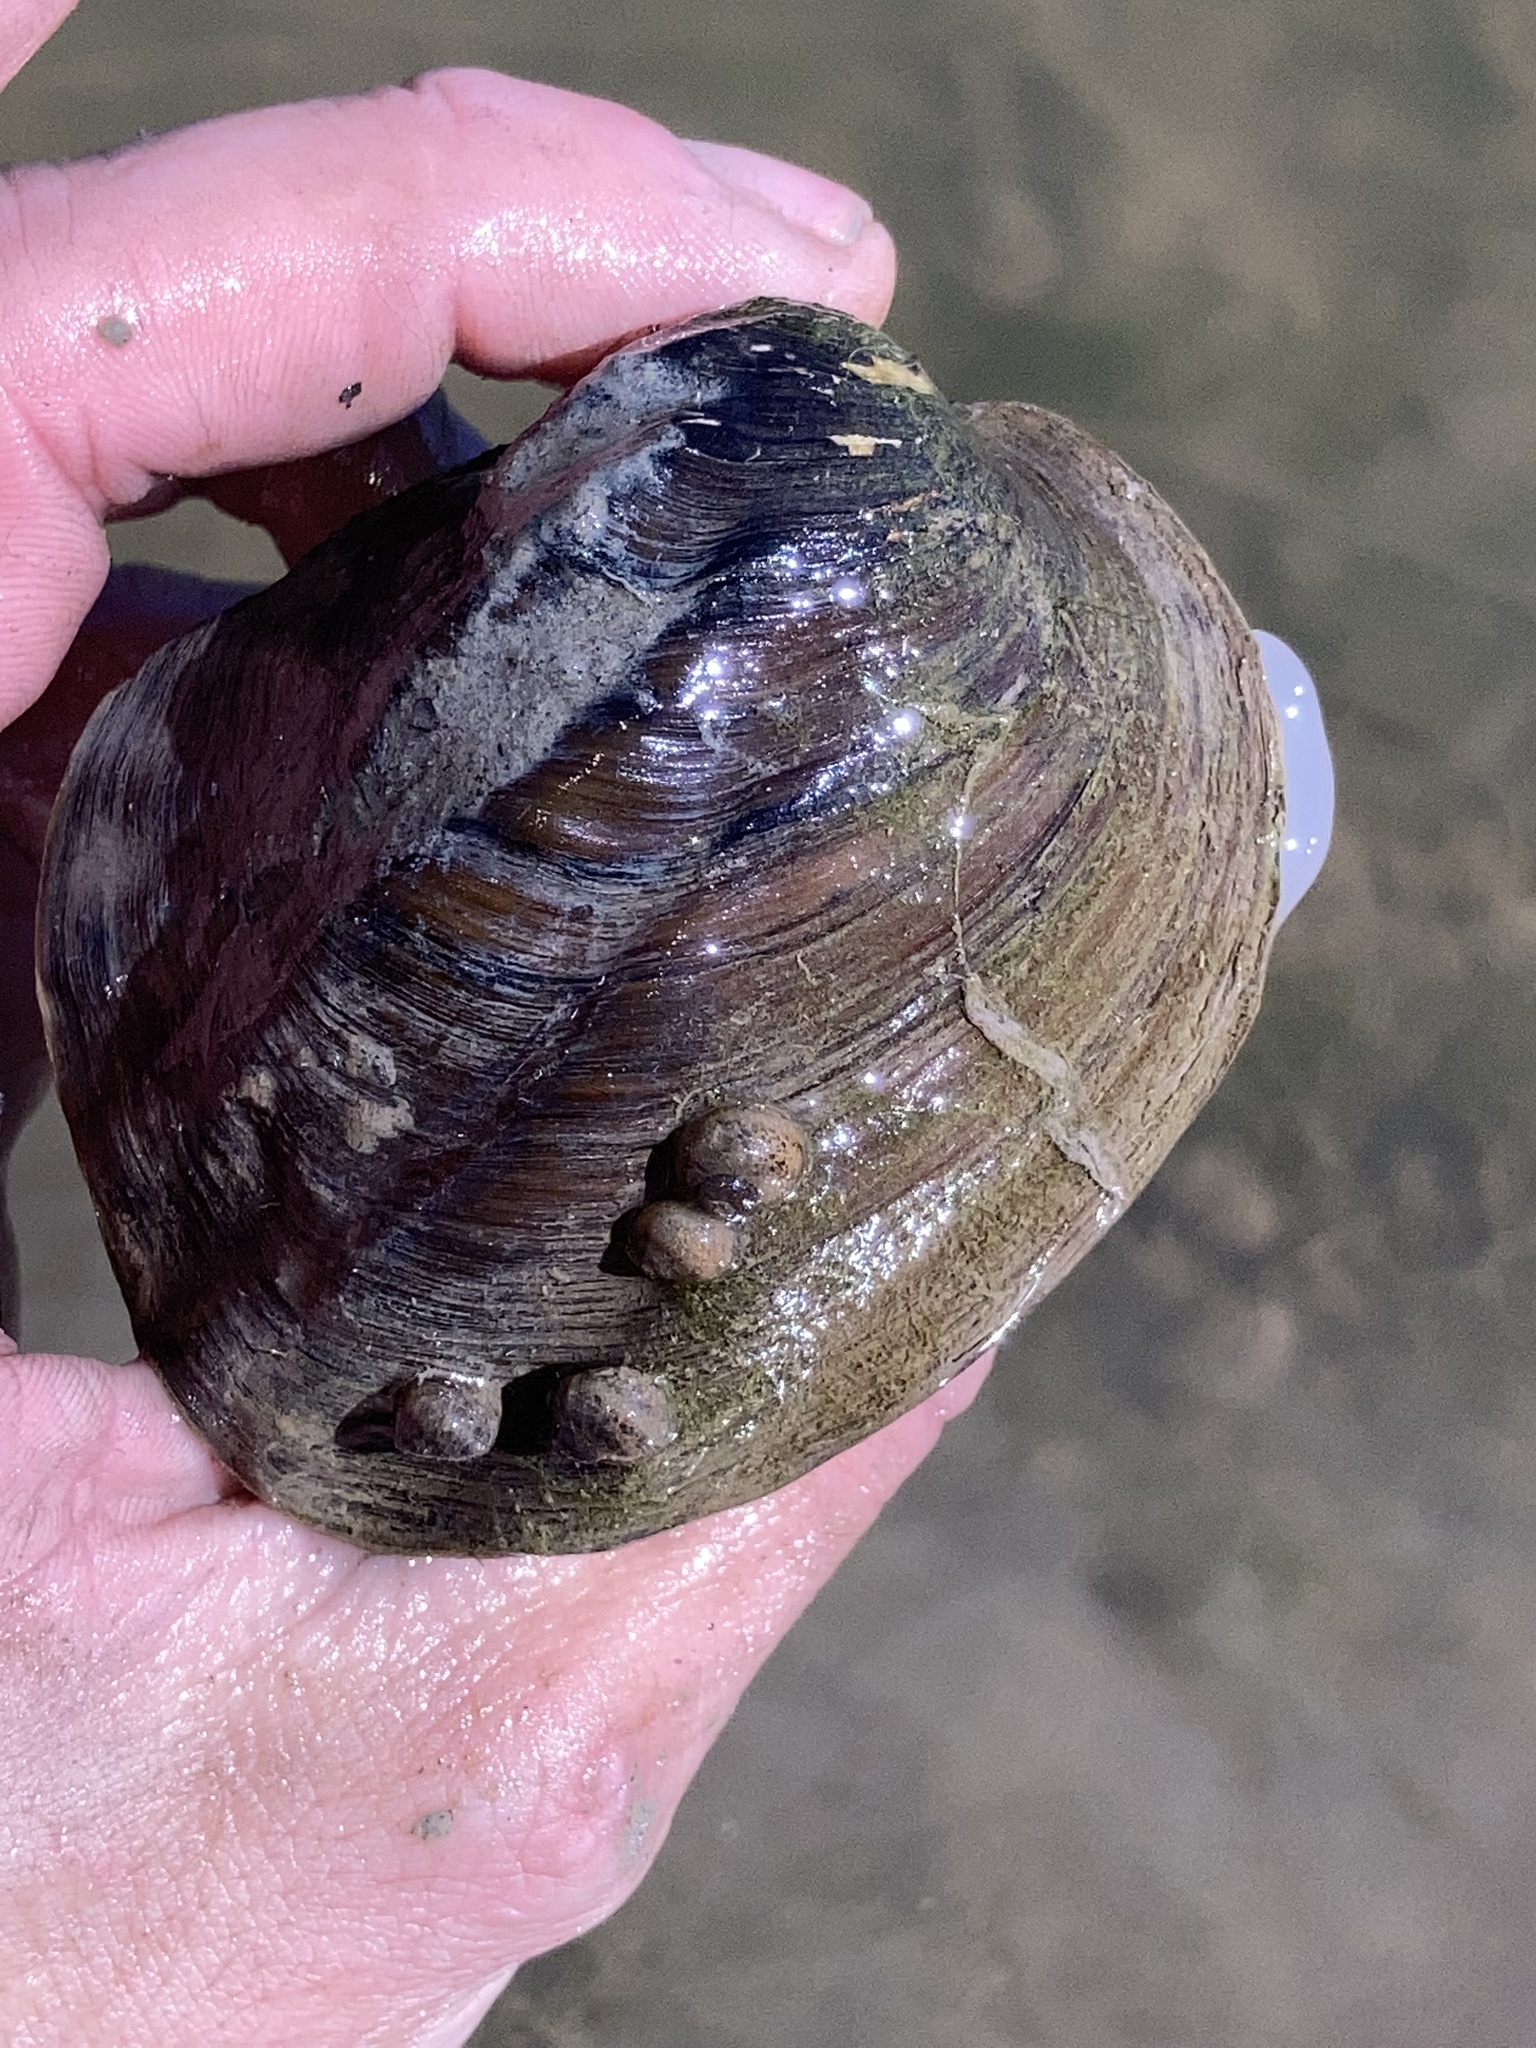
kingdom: Animalia
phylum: Mollusca
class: Bivalvia
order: Unionida
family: Unionidae
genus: Amblema
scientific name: Amblema plicata
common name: Threeridge
